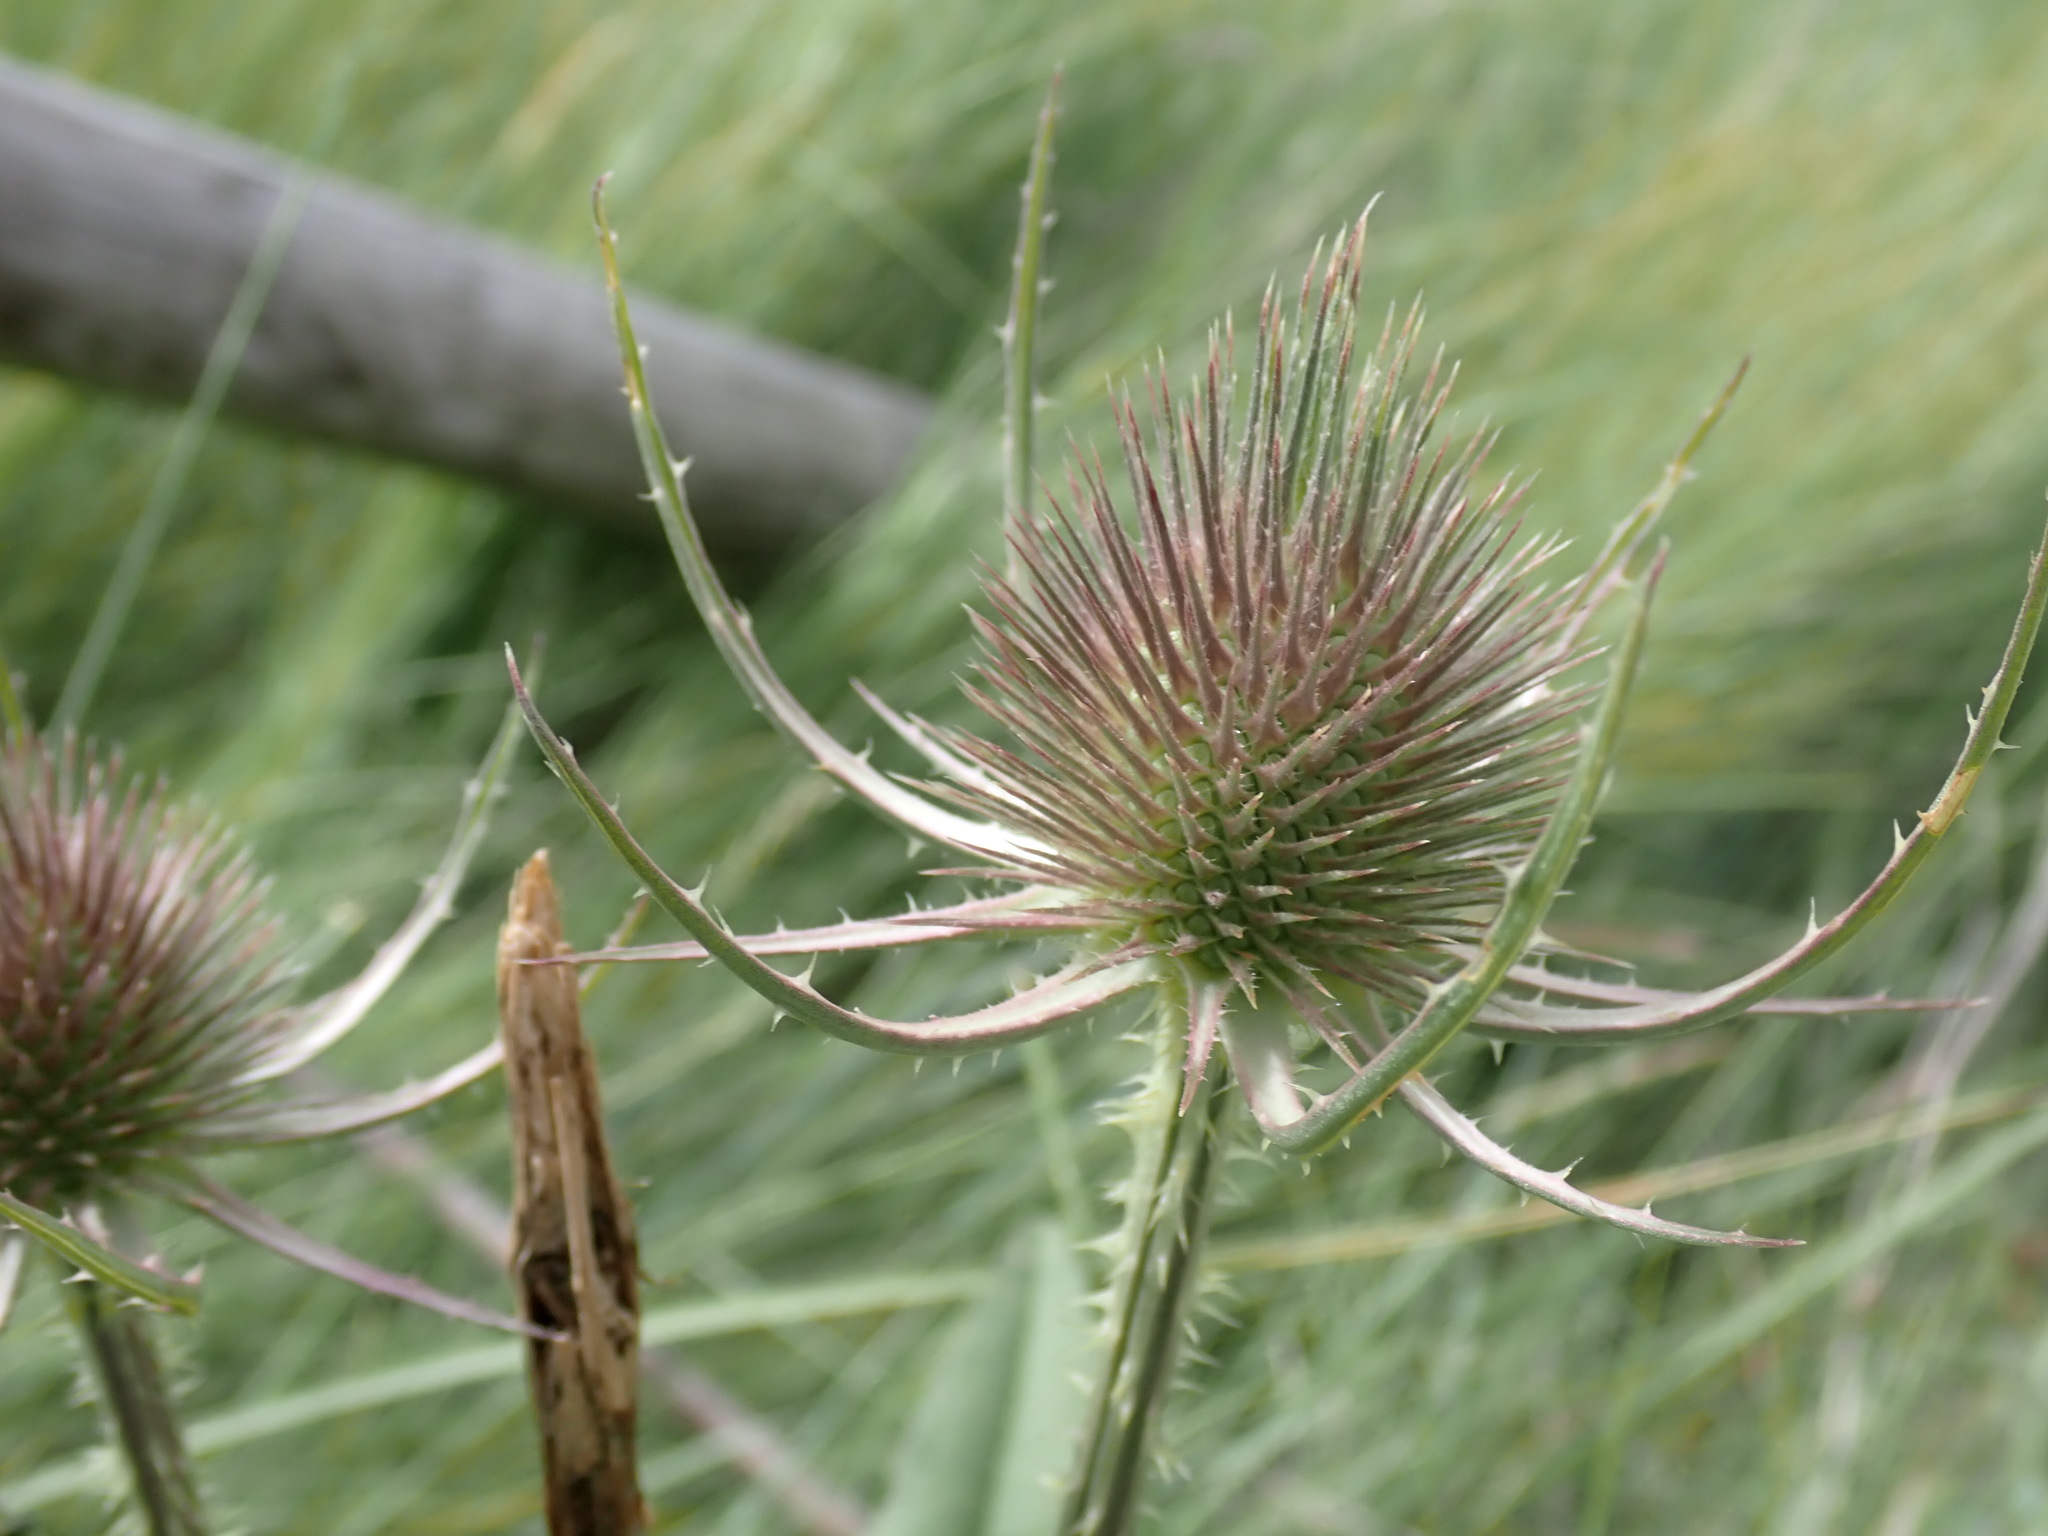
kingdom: Plantae
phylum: Tracheophyta
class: Magnoliopsida
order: Dipsacales
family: Caprifoliaceae
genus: Dipsacus
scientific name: Dipsacus fullonum
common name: Teasel
